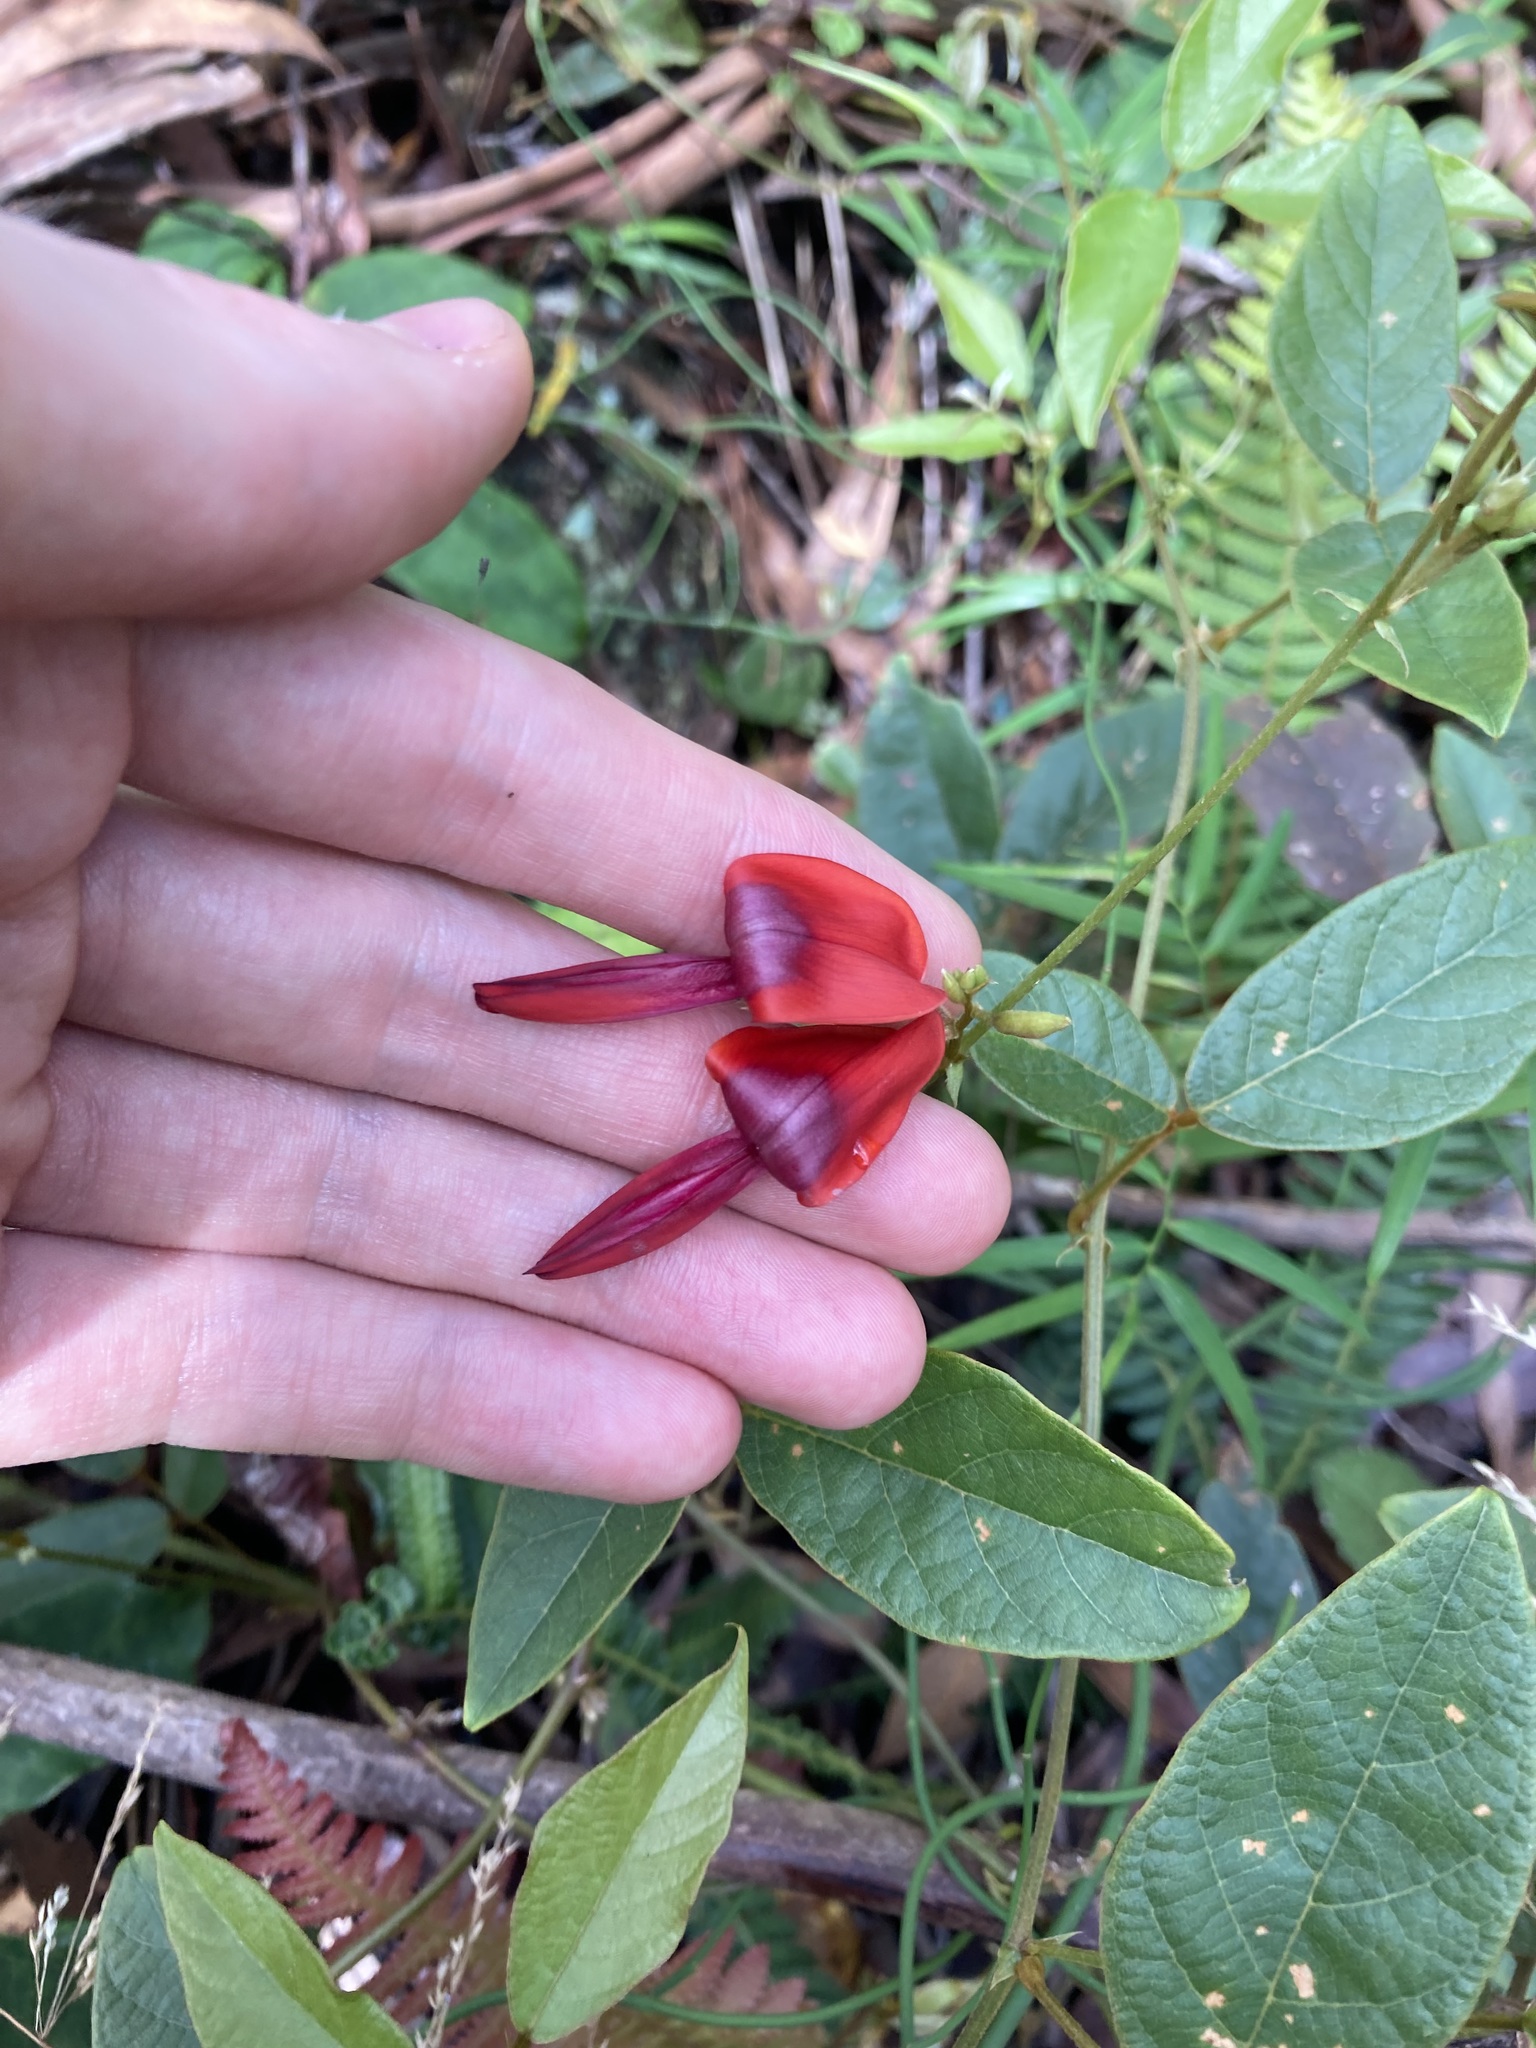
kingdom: Plantae
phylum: Tracheophyta
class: Magnoliopsida
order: Fabales
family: Fabaceae
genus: Kennedia
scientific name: Kennedia rubicunda
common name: Red kennedy-pea
